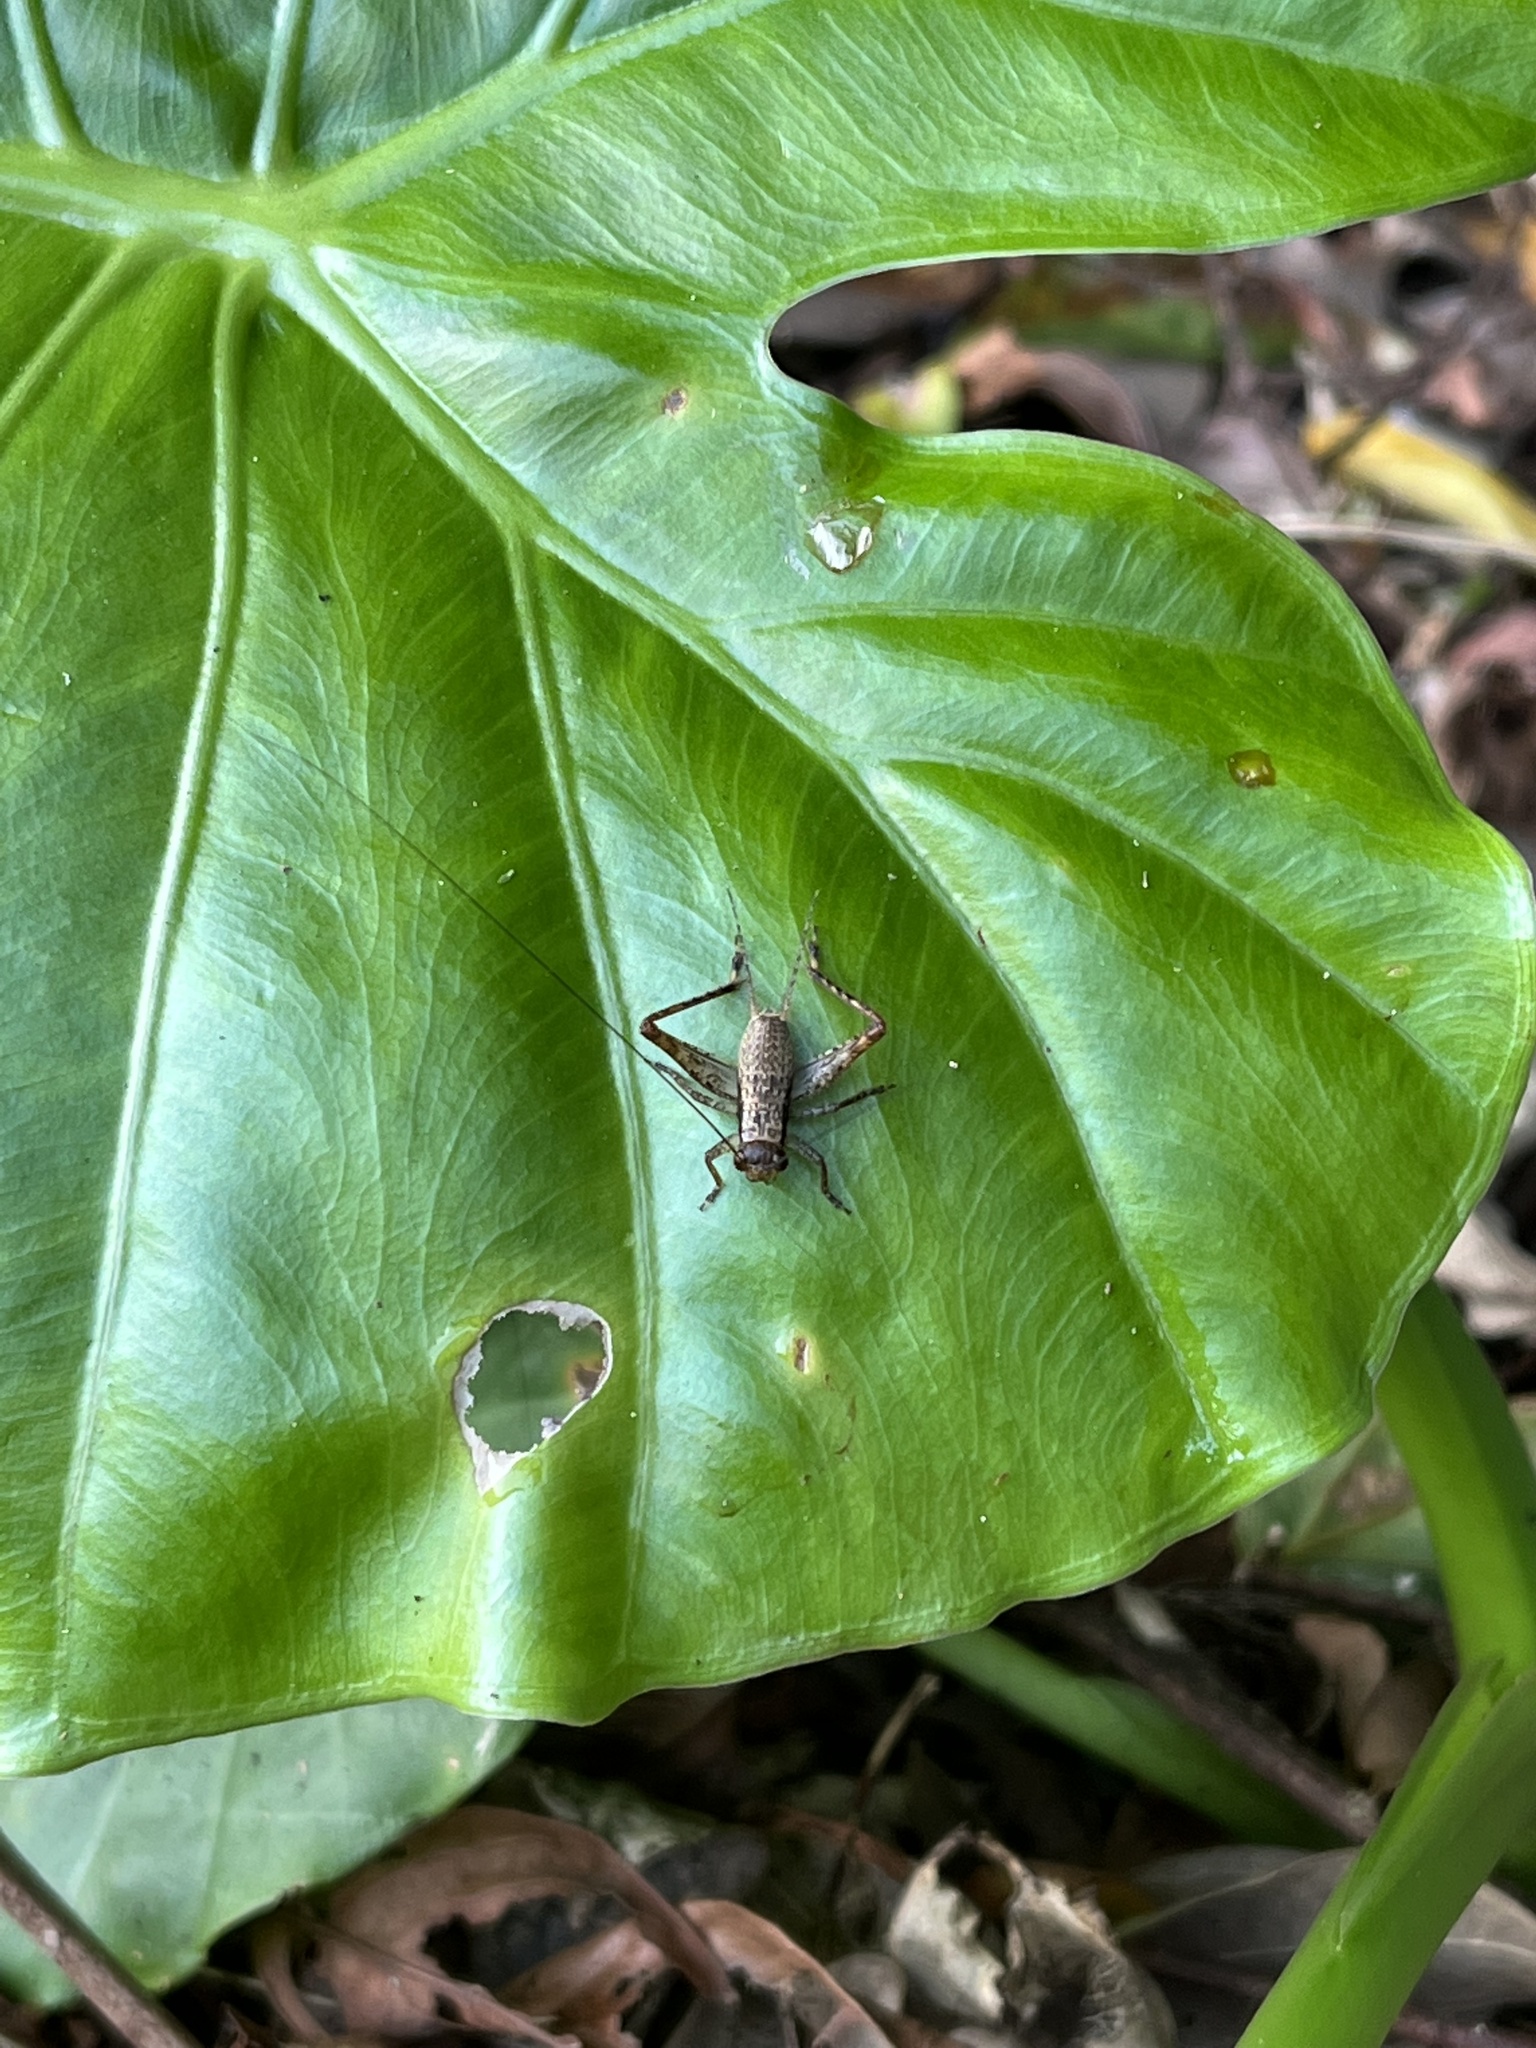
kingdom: Animalia
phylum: Arthropoda
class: Insecta
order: Orthoptera
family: Gryllidae
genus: Cardiodactylus
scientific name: Cardiodactylus guttulus
